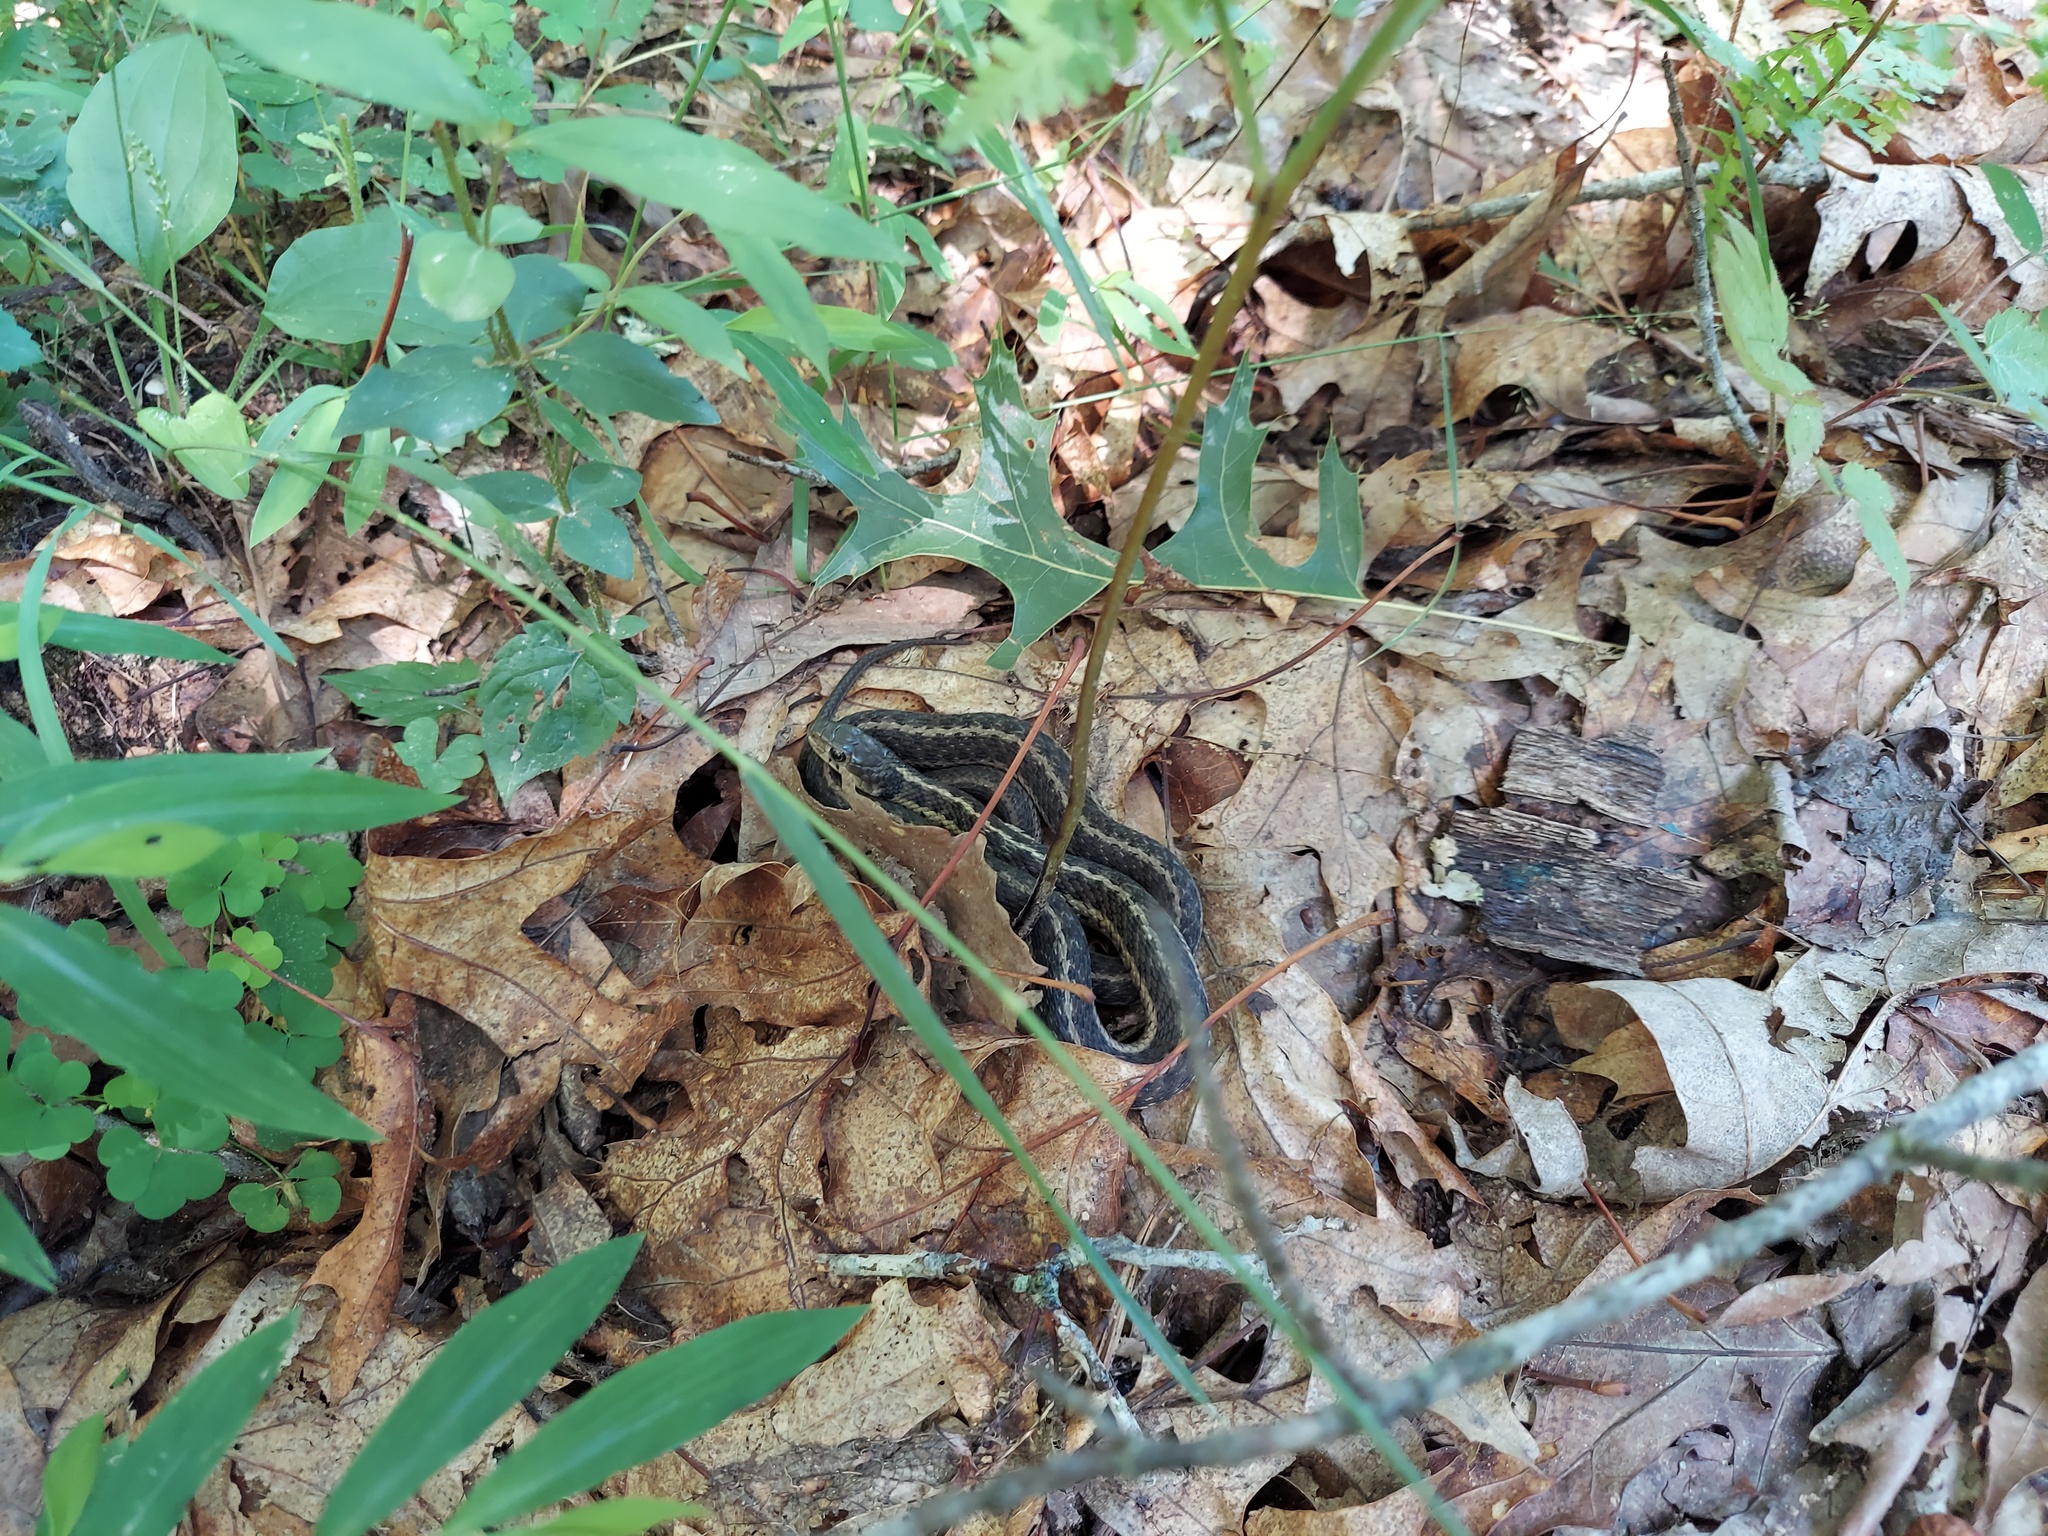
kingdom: Animalia
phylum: Chordata
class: Squamata
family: Colubridae
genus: Thamnophis
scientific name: Thamnophis sirtalis
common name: Common garter snake
